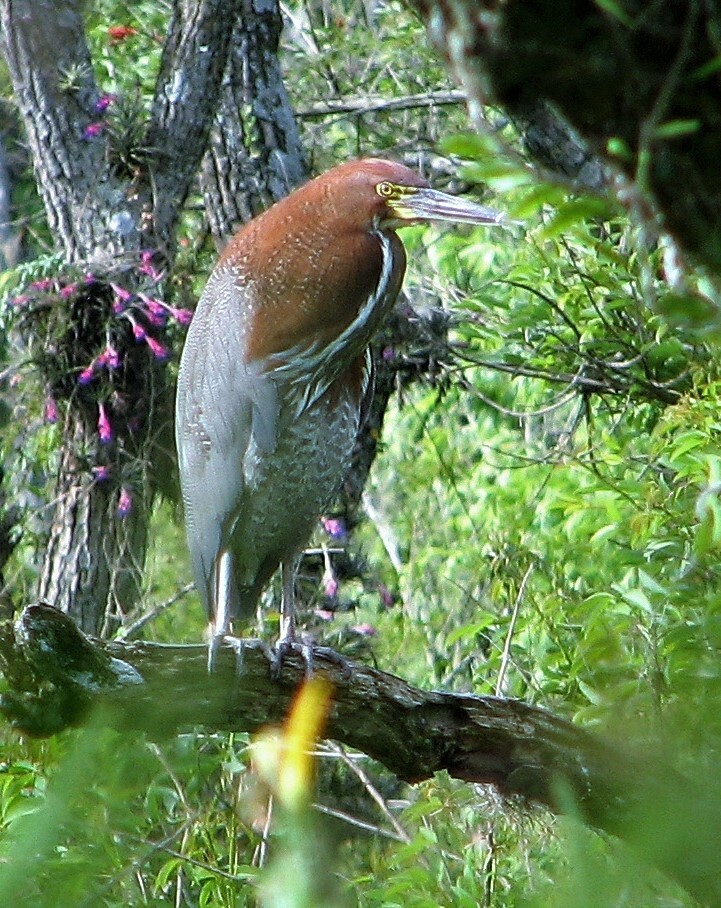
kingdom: Animalia
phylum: Chordata
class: Aves
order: Pelecaniformes
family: Ardeidae
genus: Tigrisoma
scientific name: Tigrisoma lineatum
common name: Rufescent tiger-heron
